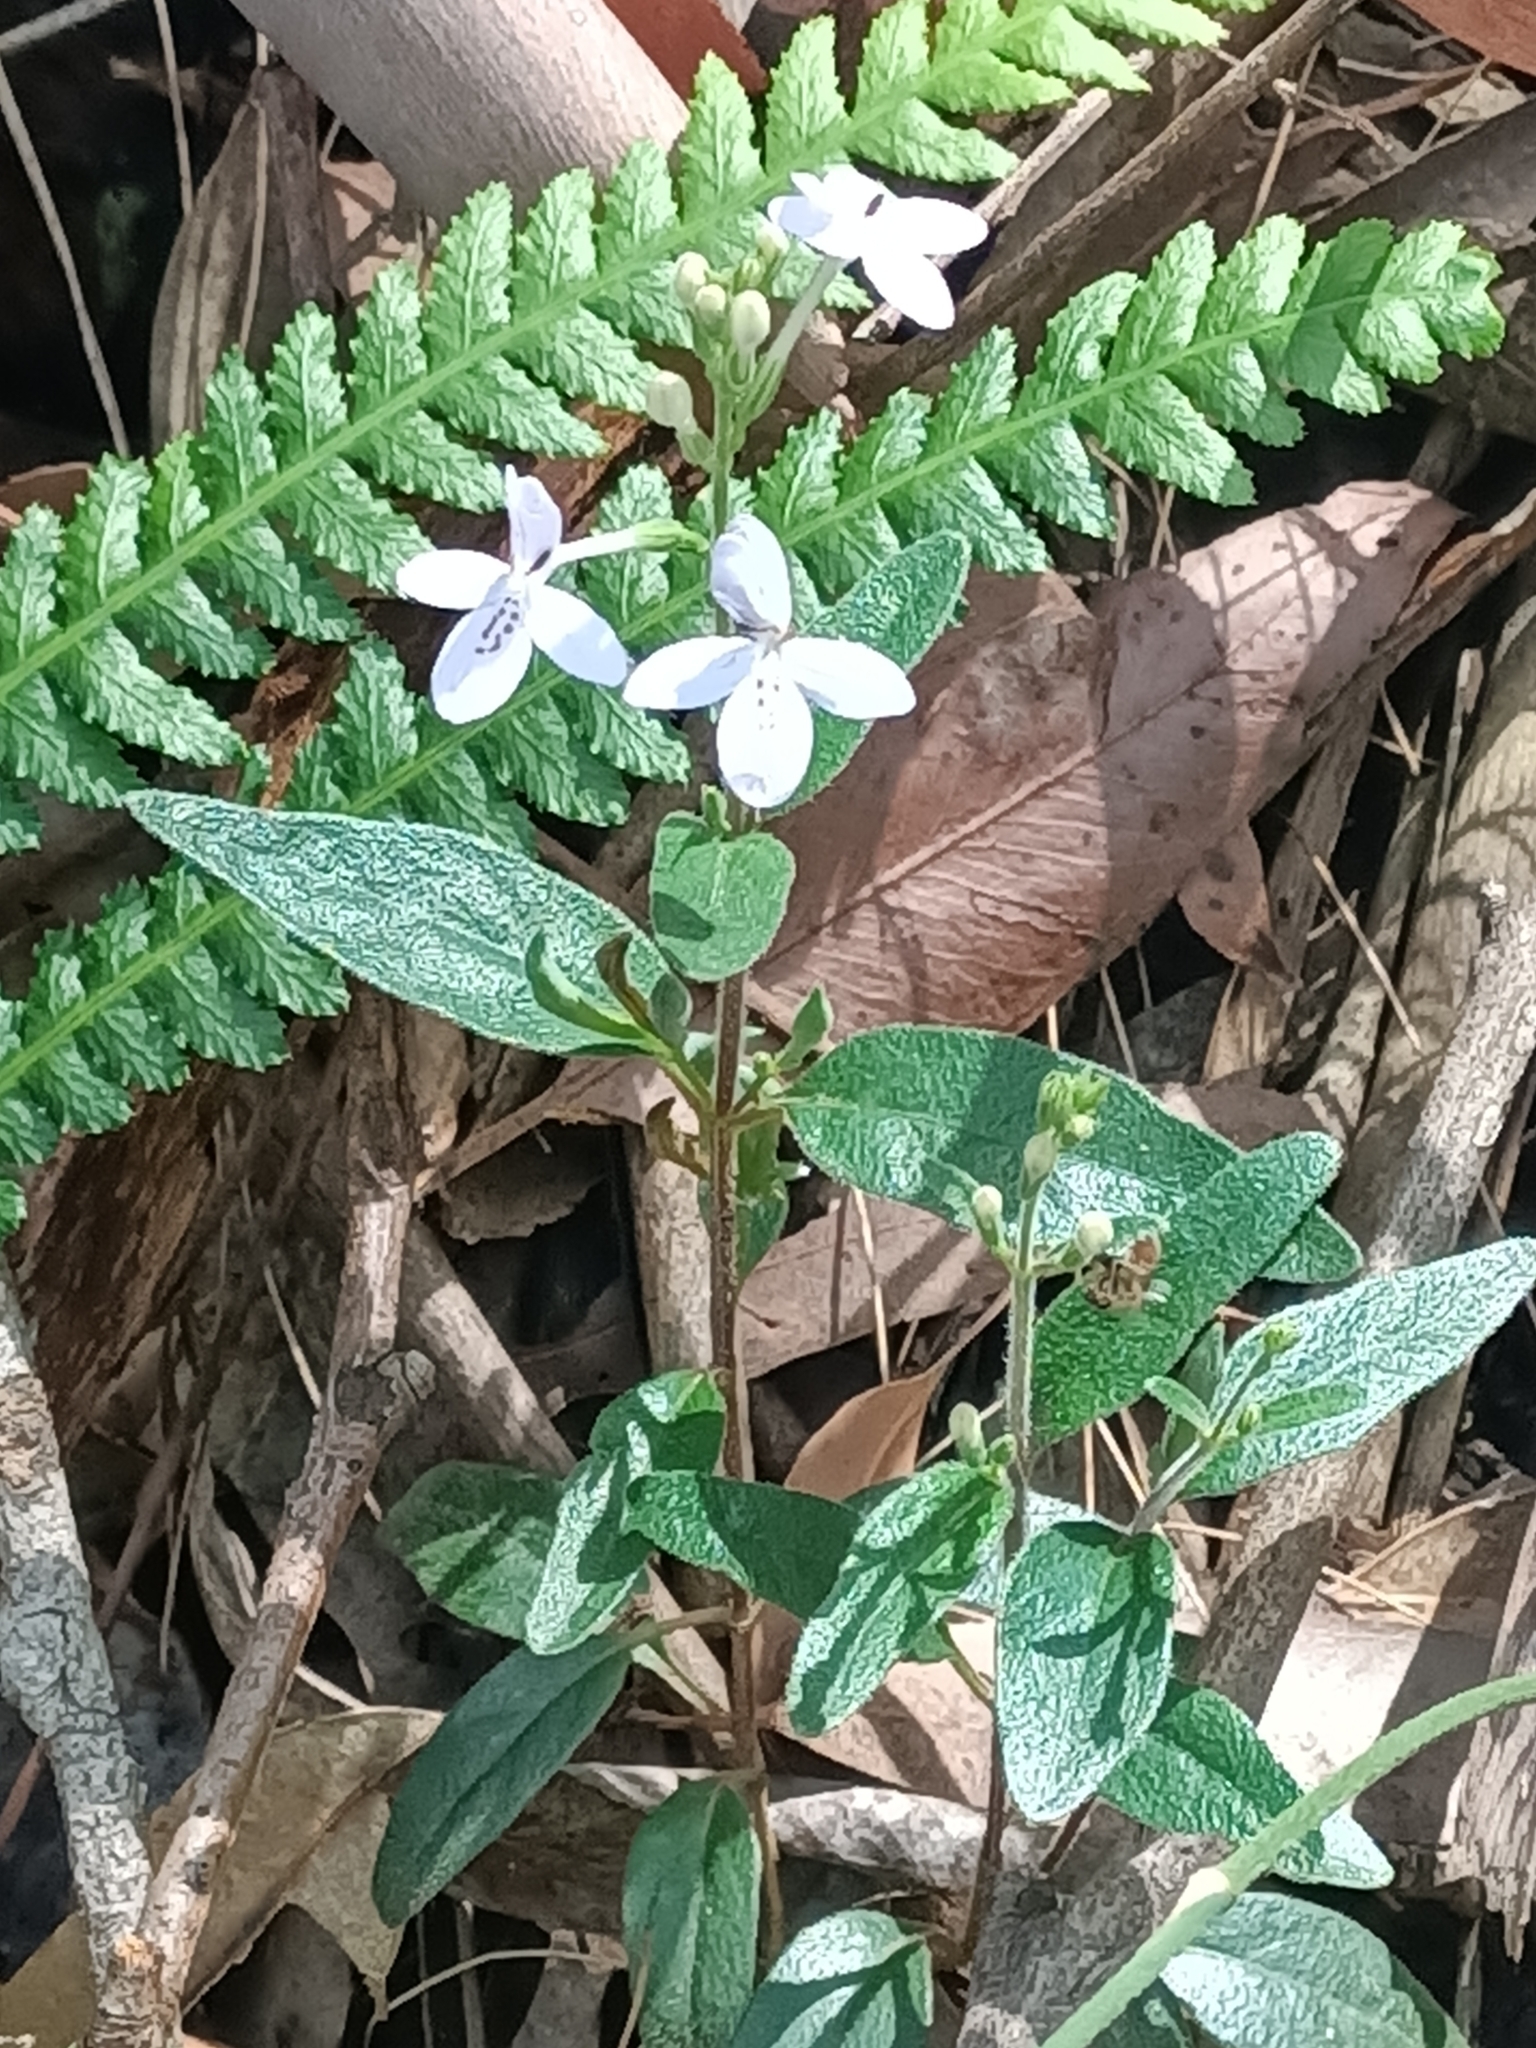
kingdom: Plantae
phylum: Tracheophyta
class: Magnoliopsida
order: Lamiales
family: Acanthaceae
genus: Pseuderanthemum
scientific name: Pseuderanthemum variabile
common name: Night and afternoon
